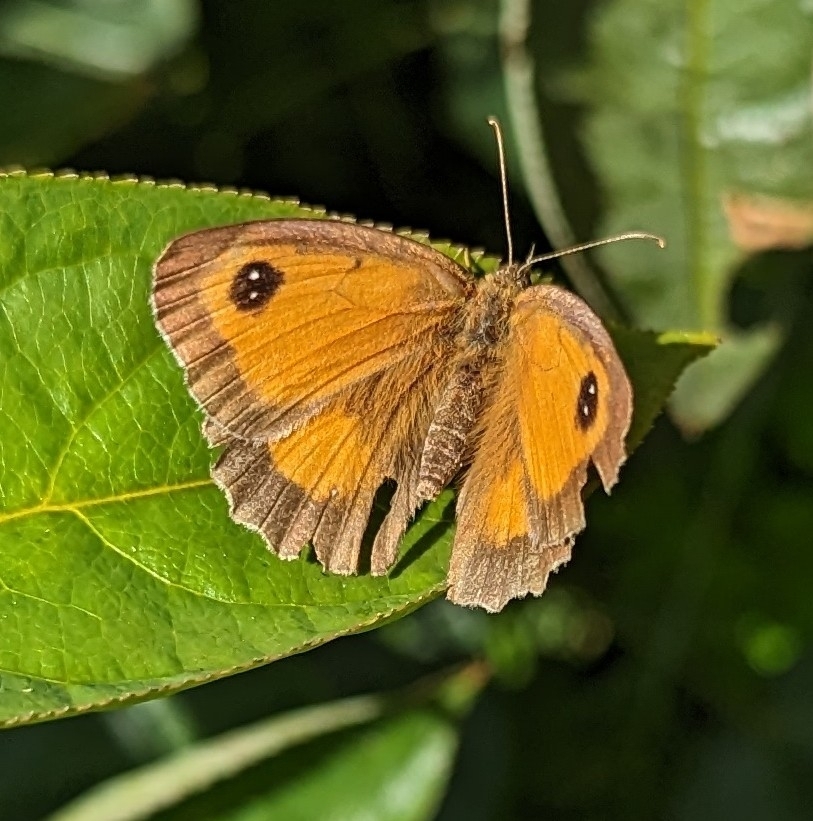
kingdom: Animalia
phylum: Arthropoda
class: Insecta
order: Lepidoptera
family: Nymphalidae
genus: Pyronia
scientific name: Pyronia tithonus
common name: Gatekeeper
